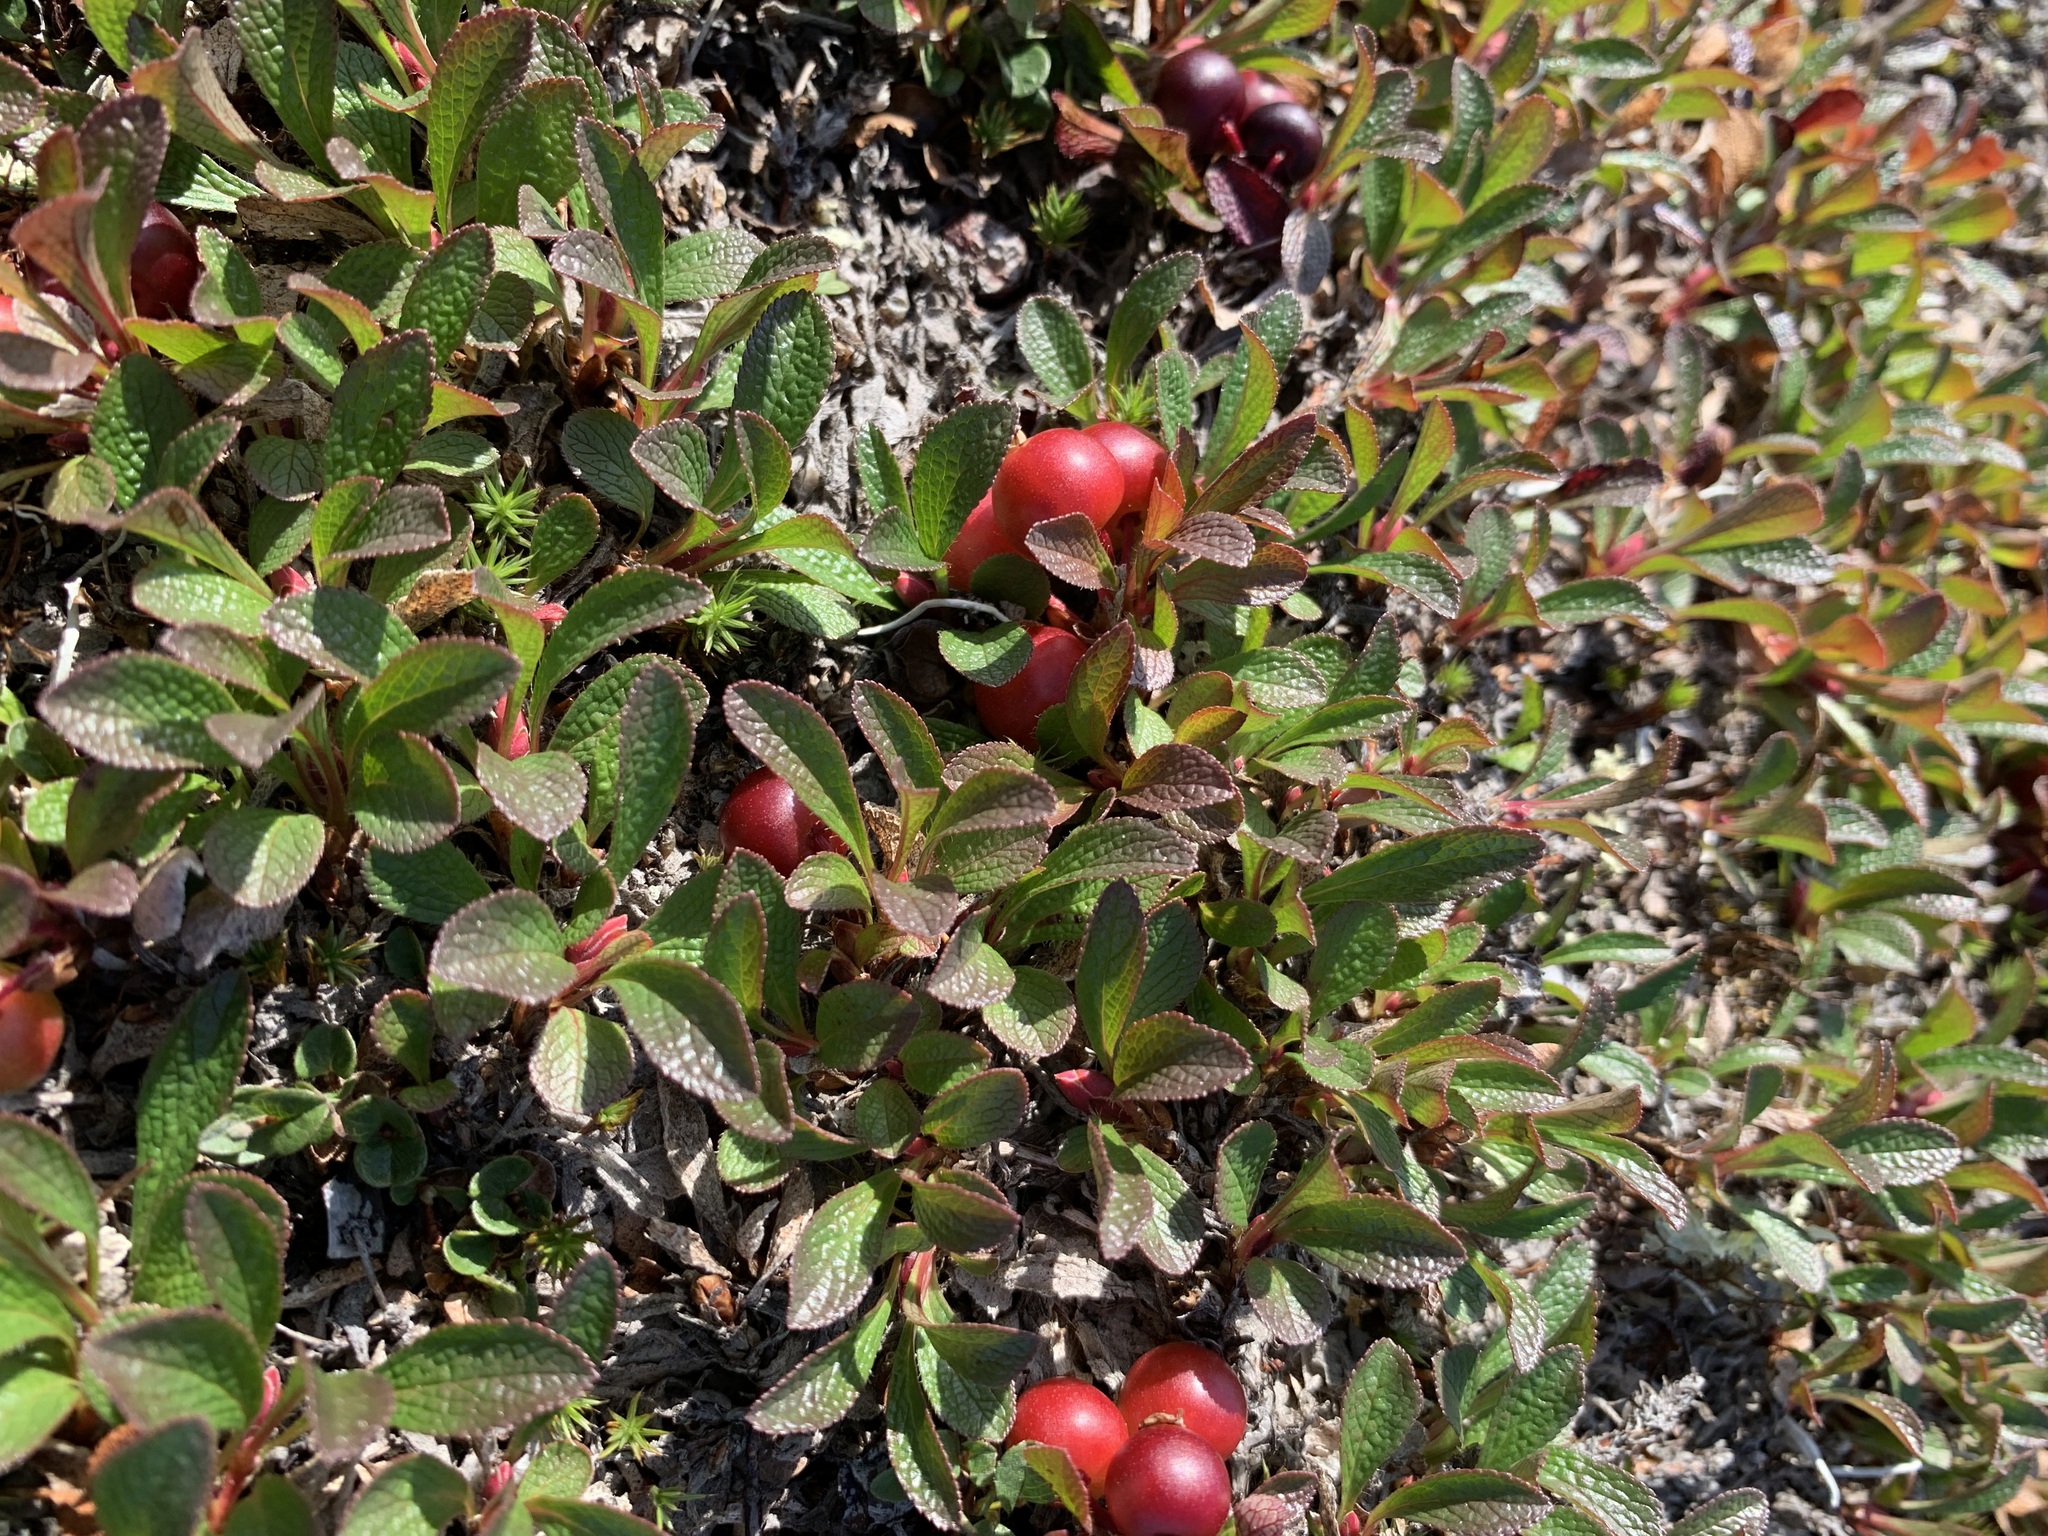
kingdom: Plantae
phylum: Tracheophyta
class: Magnoliopsida
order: Ericales
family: Ericaceae
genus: Arctostaphylos
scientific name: Arctostaphylos alpinus
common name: Alpine bearberry
